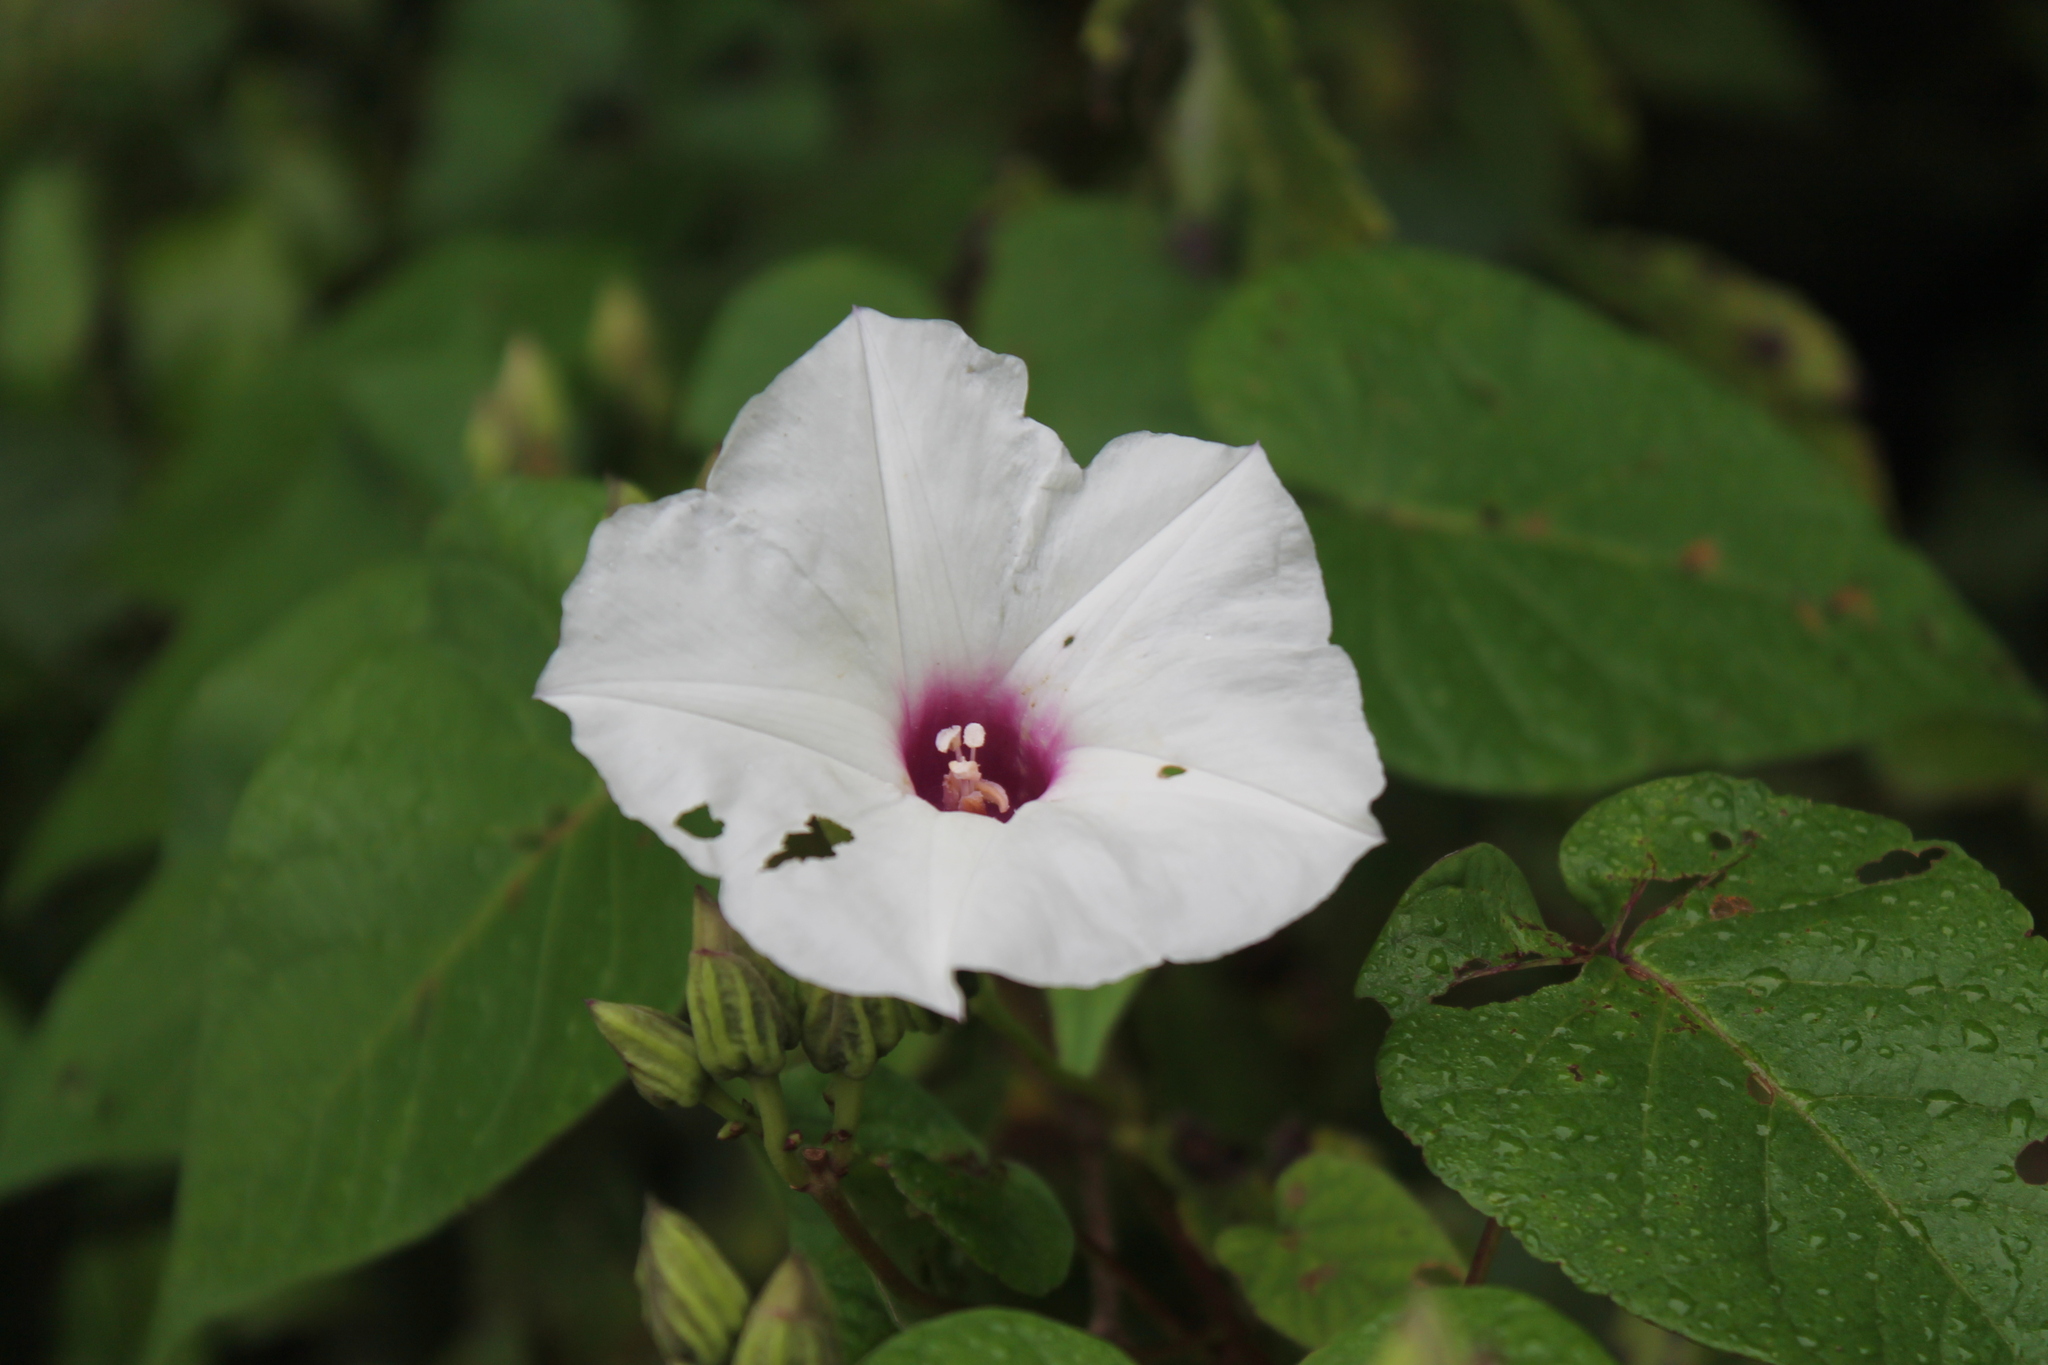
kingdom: Plantae
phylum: Tracheophyta
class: Magnoliopsida
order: Solanales
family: Convolvulaceae
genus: Ipomoea
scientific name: Ipomoea pandurata
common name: Man-of-the-earth
